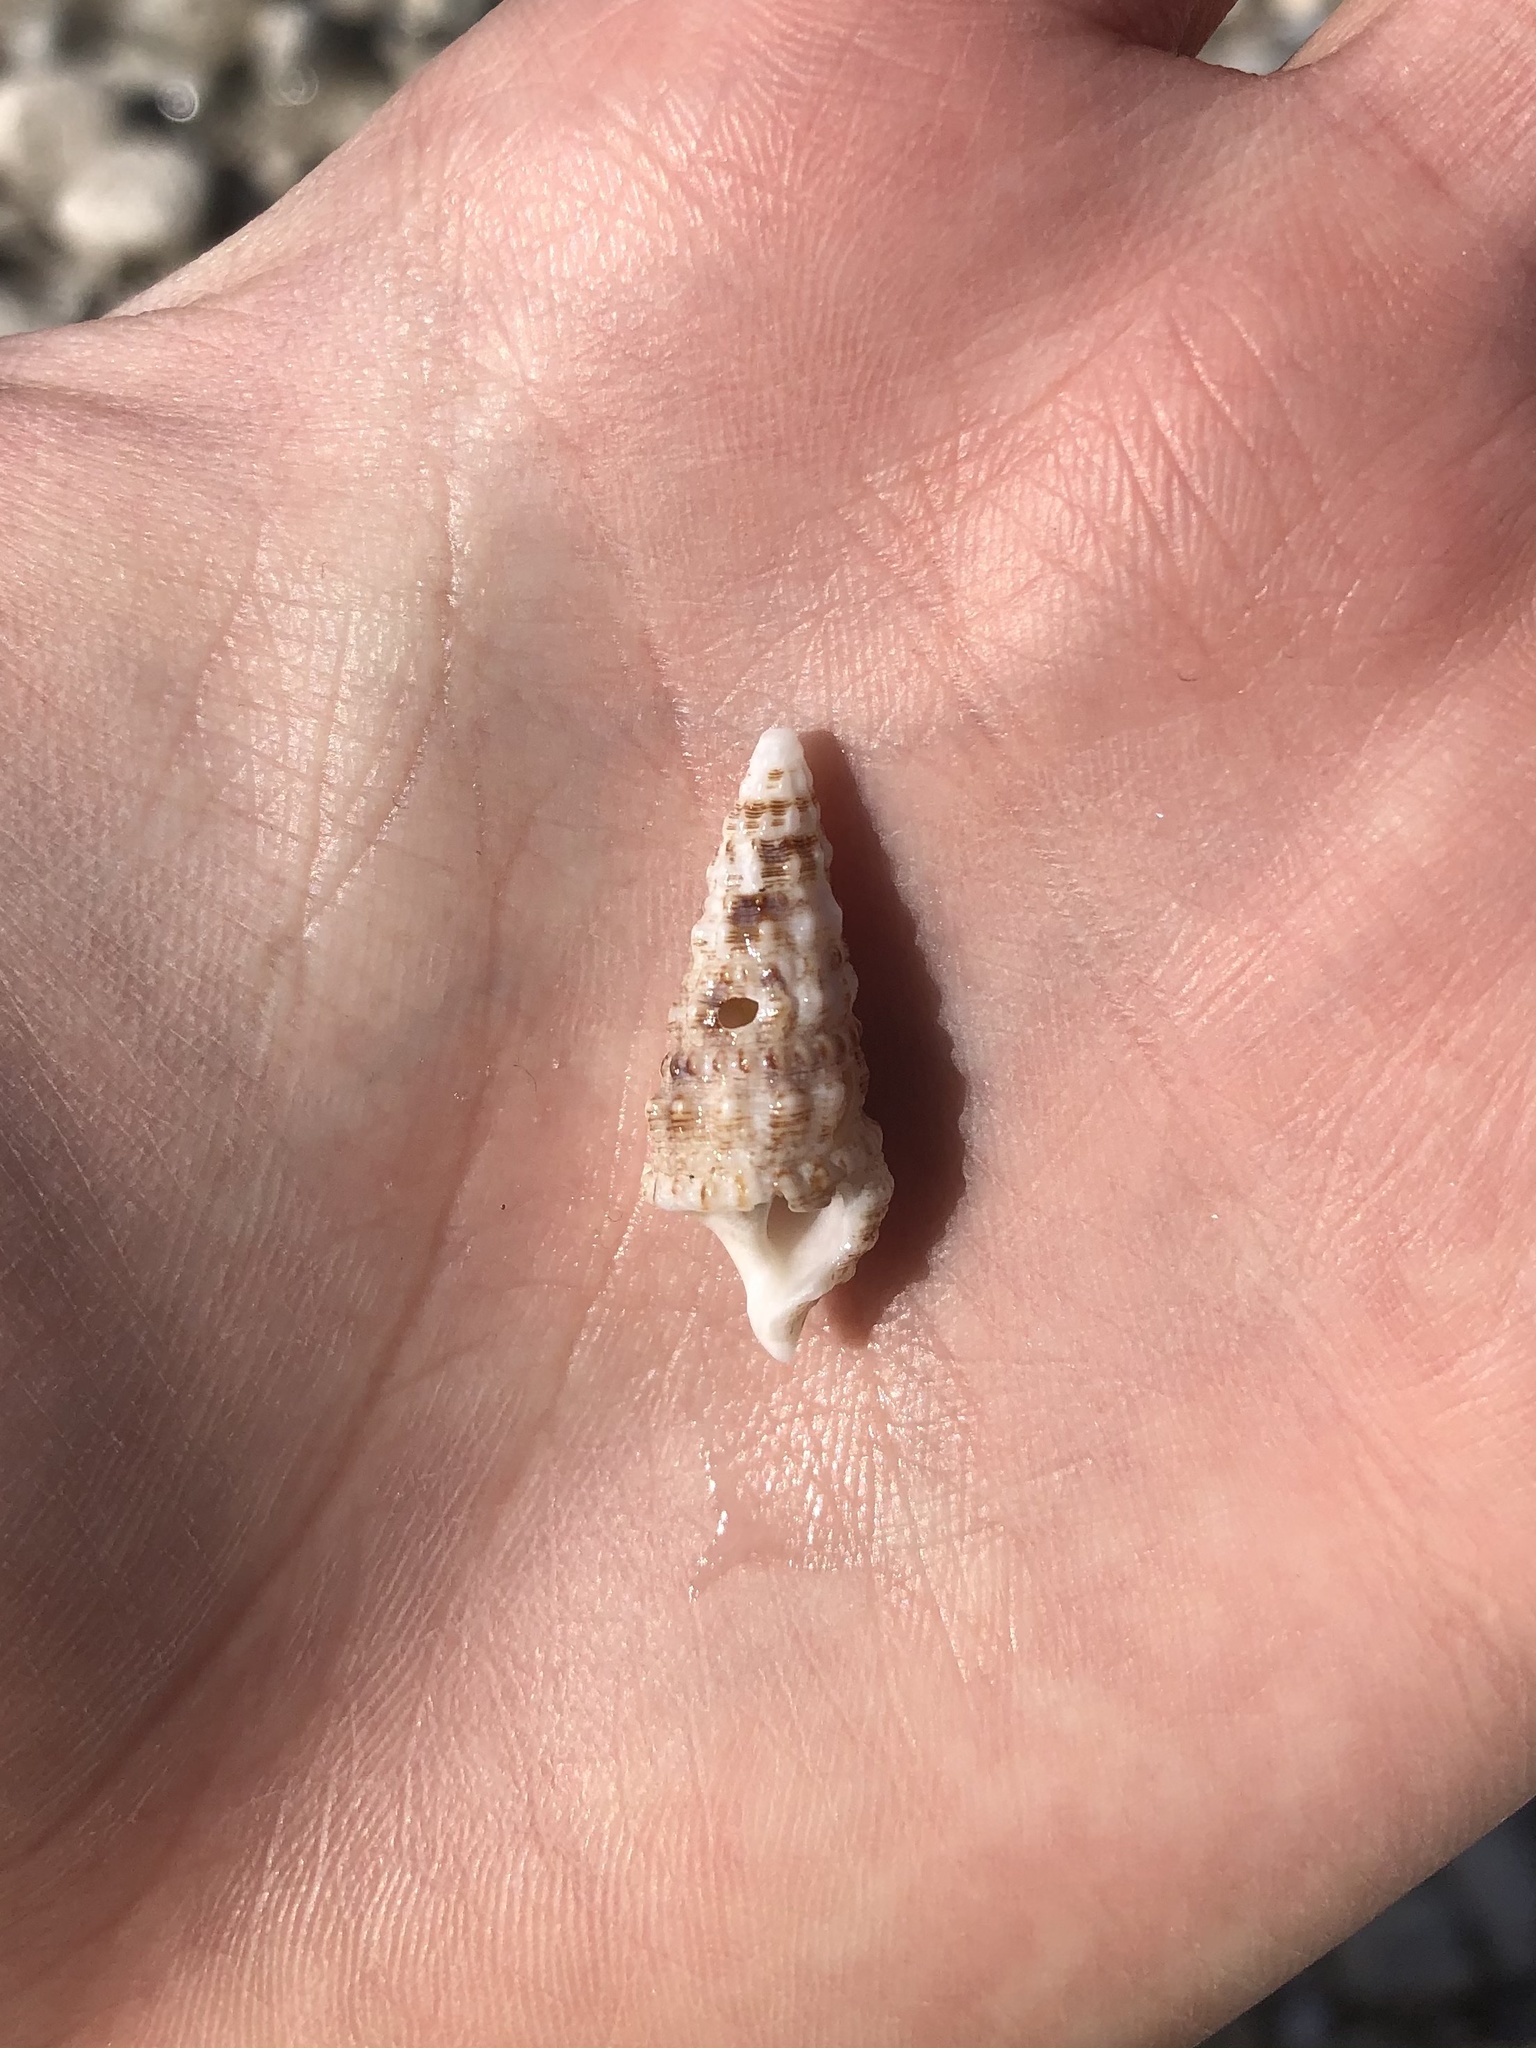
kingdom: Animalia
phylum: Mollusca
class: Gastropoda
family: Cerithiidae
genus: Cerithium
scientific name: Cerithium atratum
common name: Dark cerith
